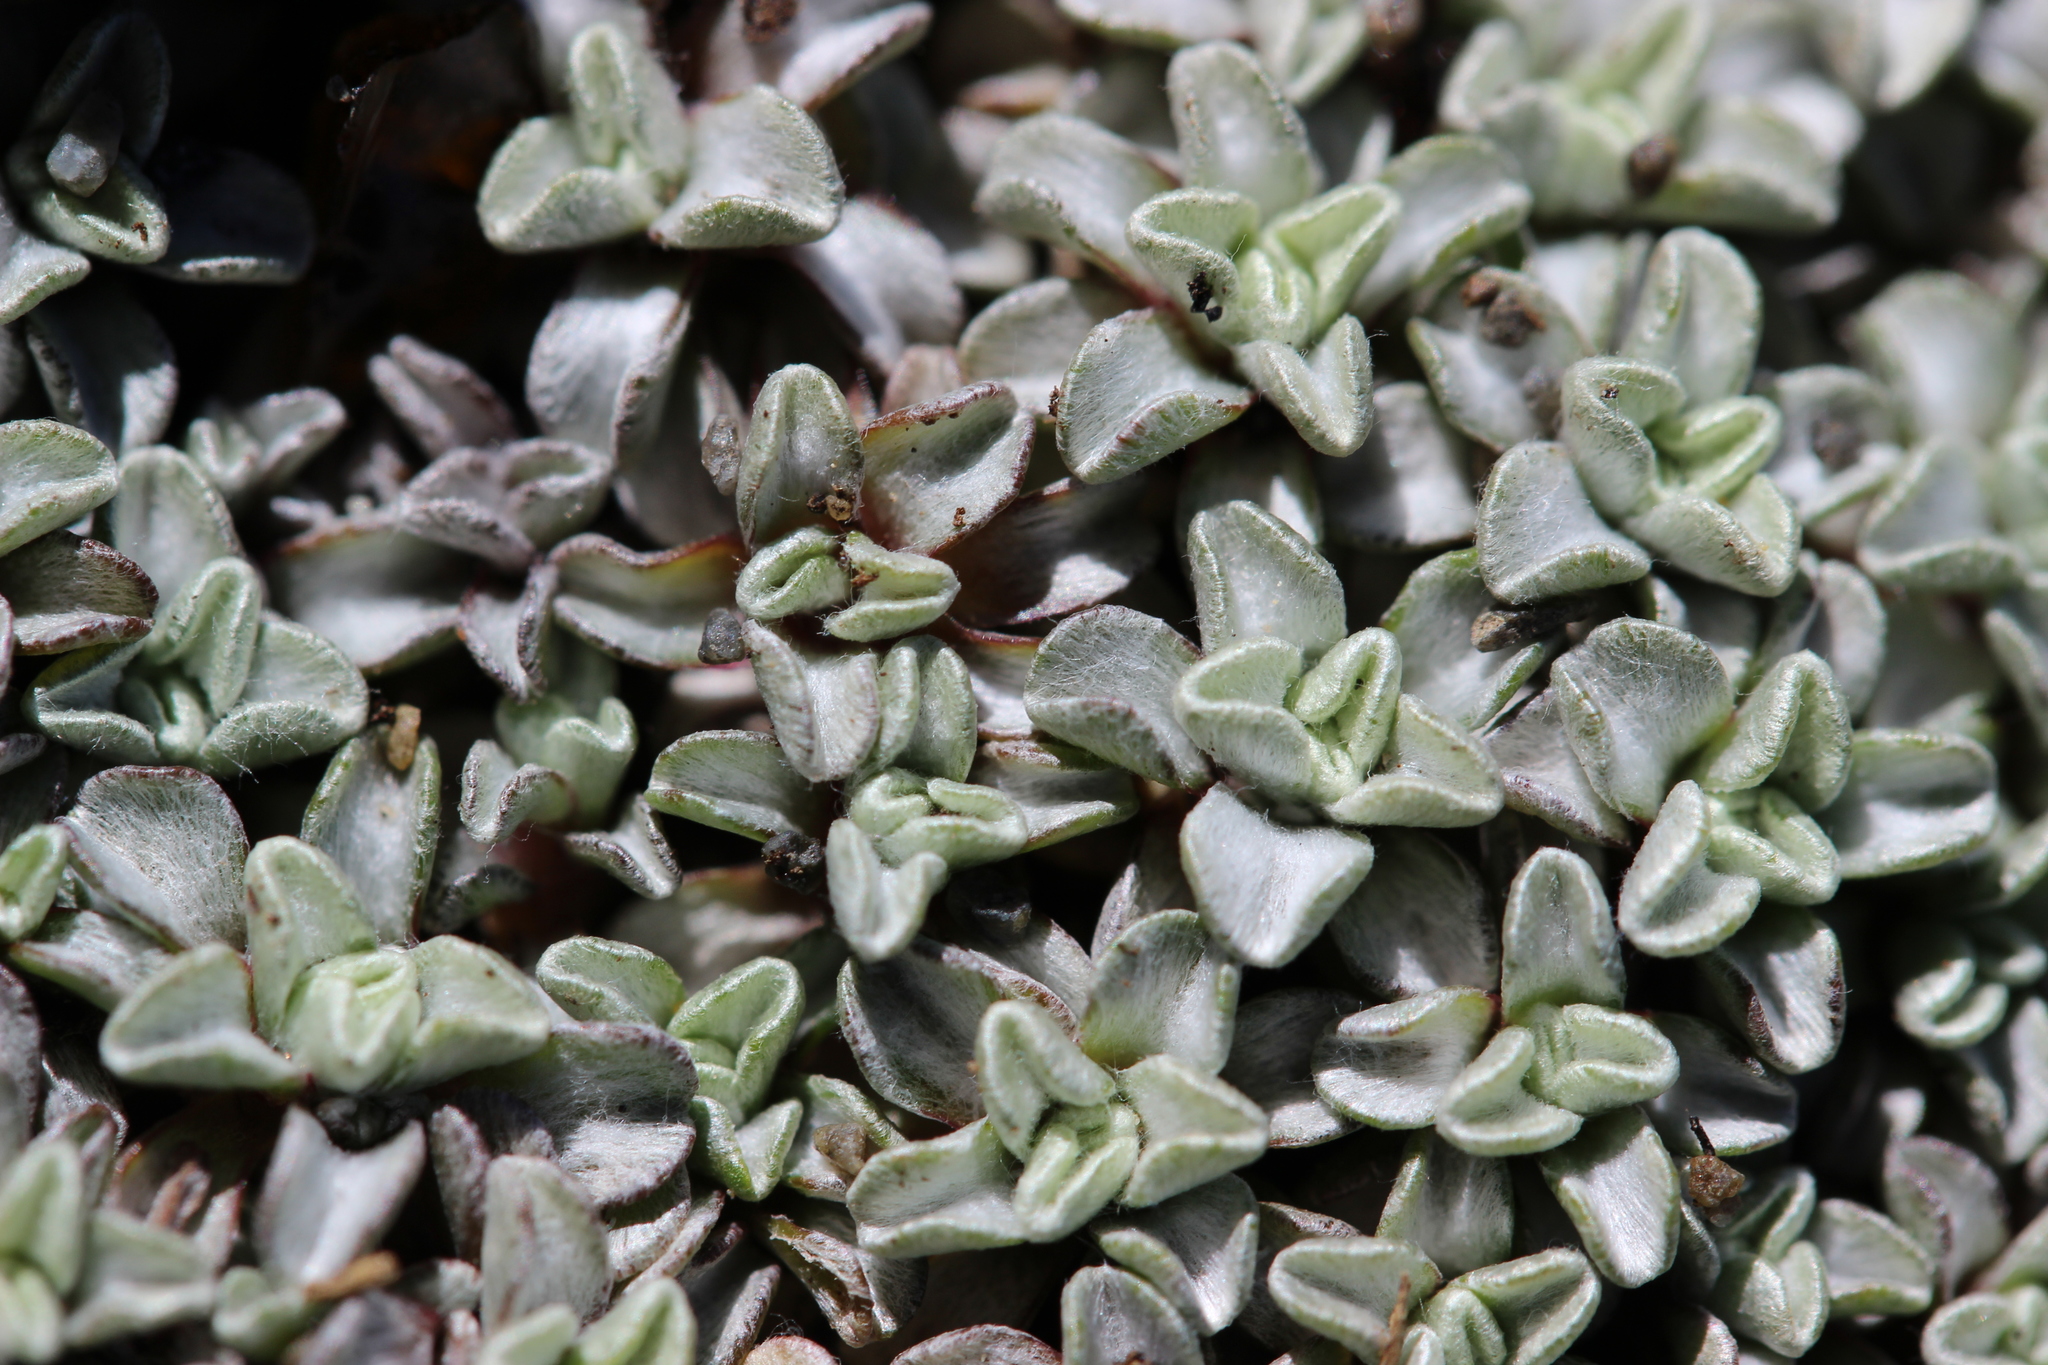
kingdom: Plantae
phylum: Tracheophyta
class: Magnoliopsida
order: Asterales
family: Asteraceae
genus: Raoulia
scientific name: Raoulia hookeri
